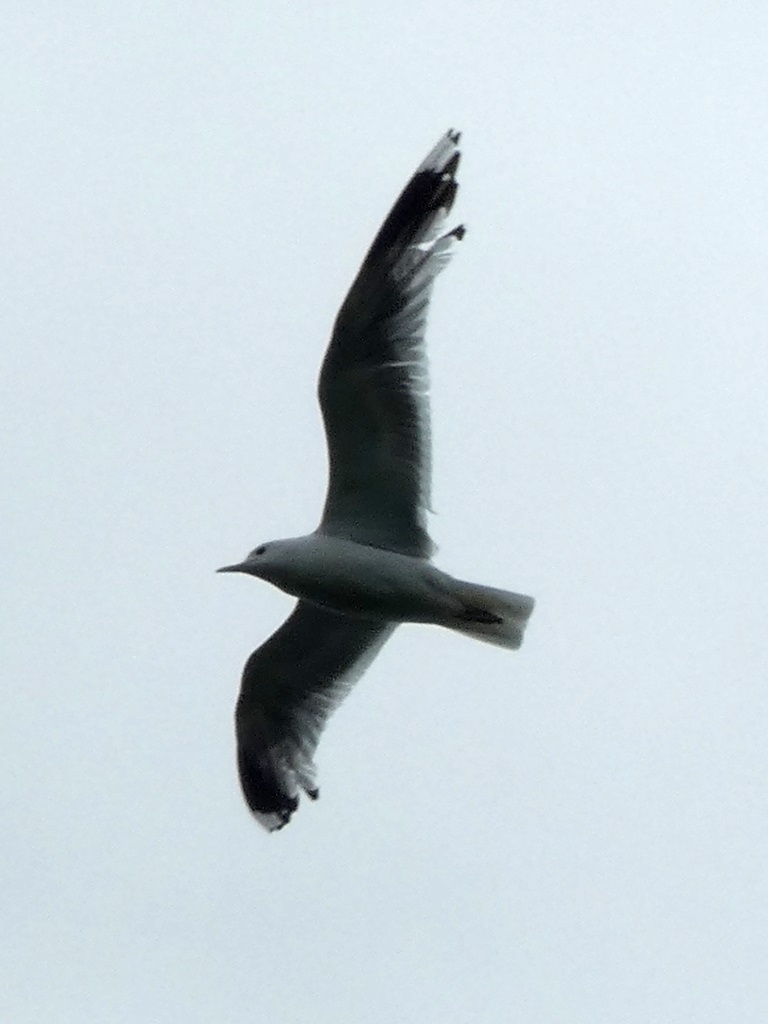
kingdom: Animalia
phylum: Chordata
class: Aves
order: Charadriiformes
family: Laridae
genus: Larus
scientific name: Larus canus
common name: Mew gull
